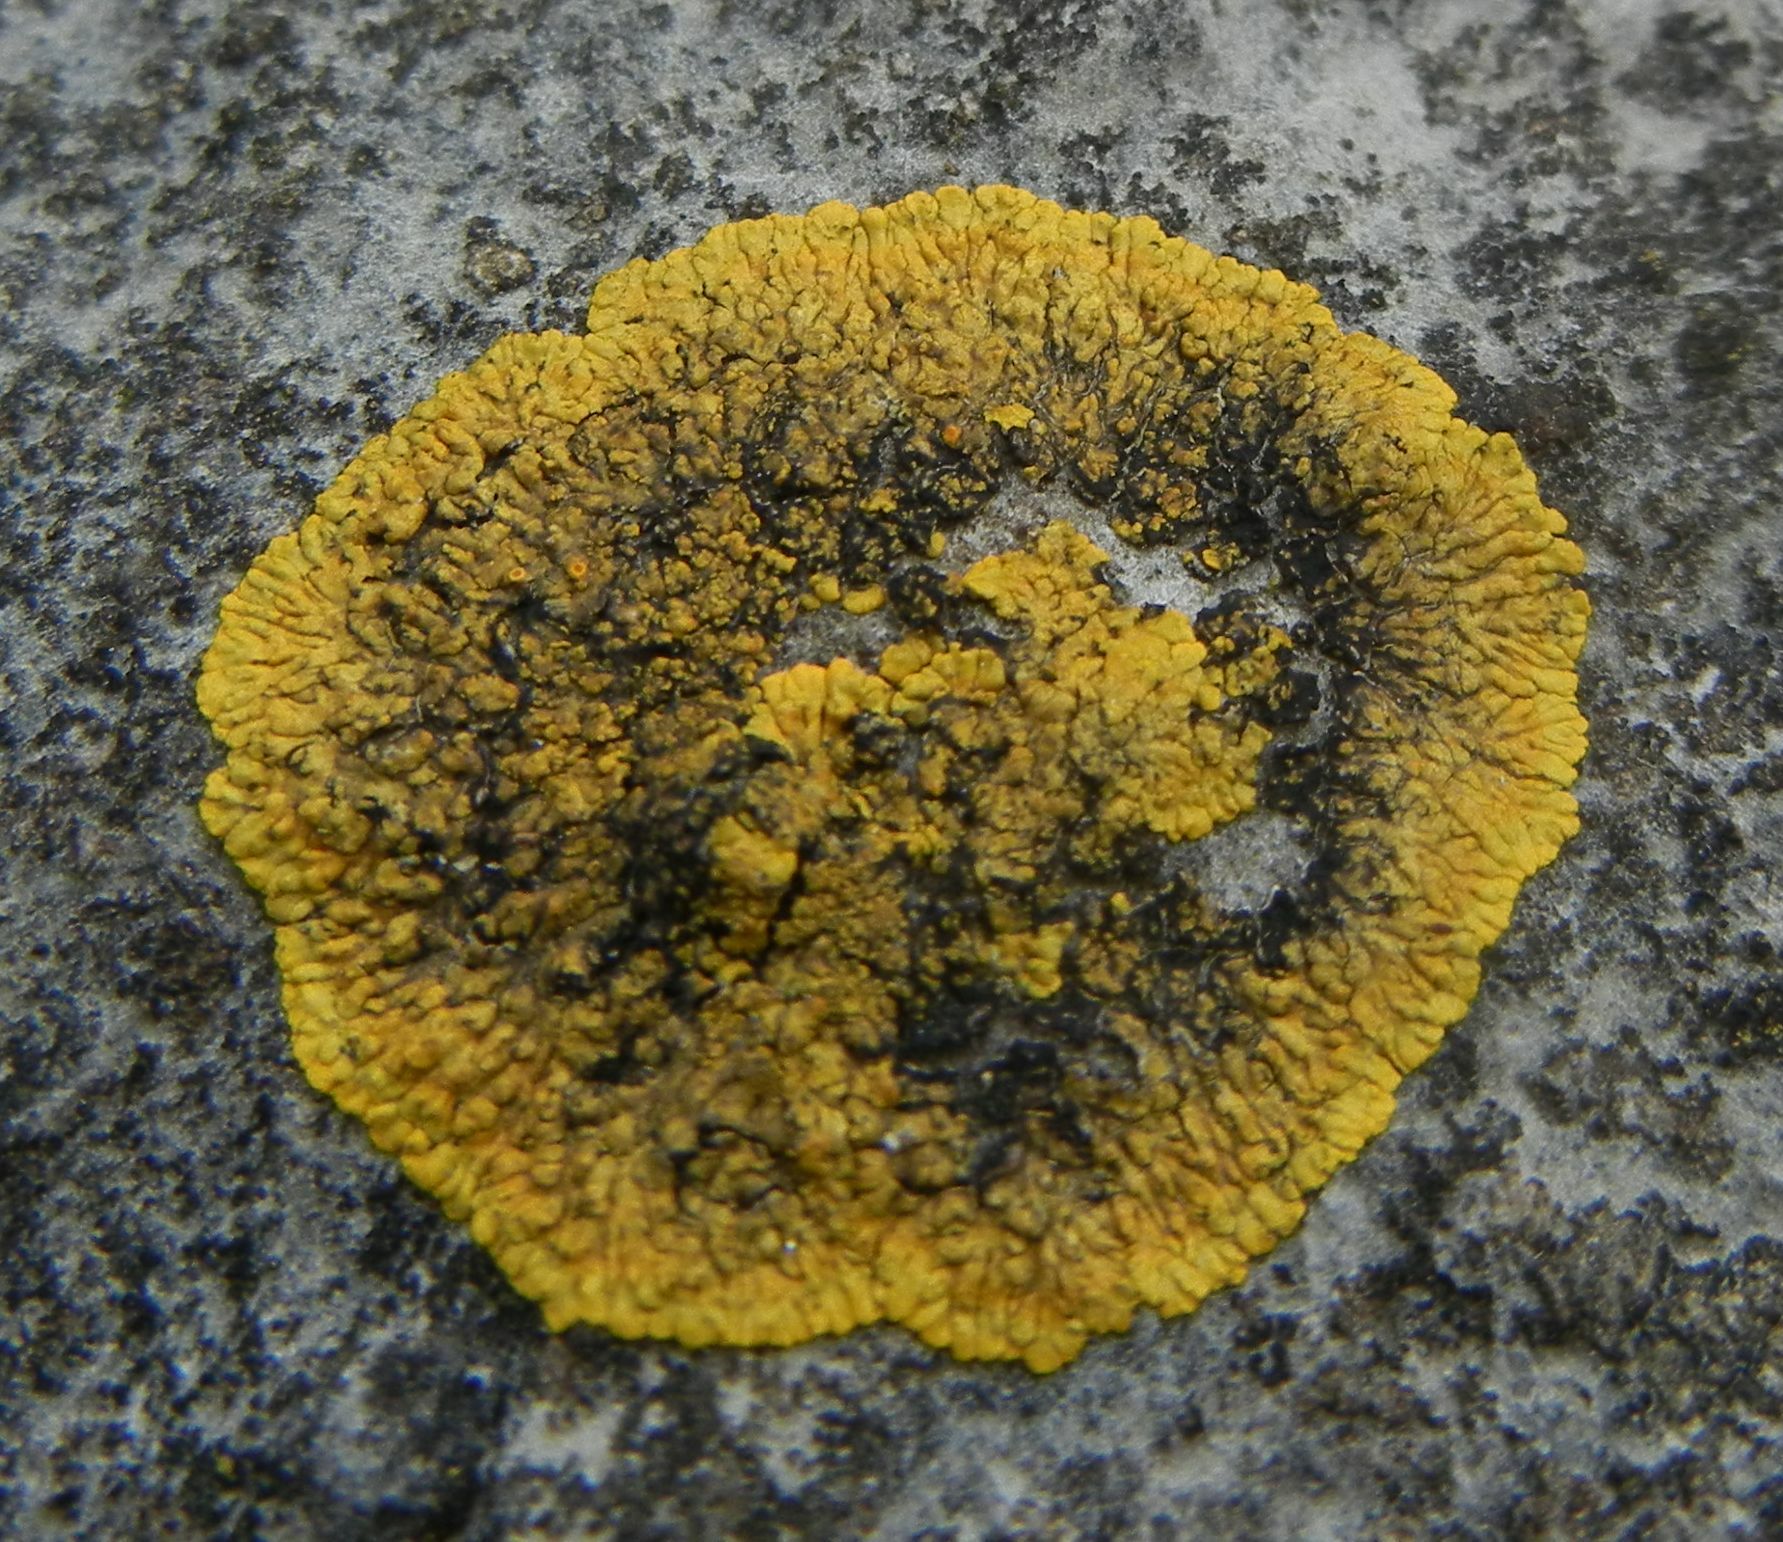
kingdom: Fungi
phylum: Ascomycota
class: Lecanoromycetes
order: Teloschistales
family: Teloschistaceae
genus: Variospora
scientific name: Variospora flavescens
